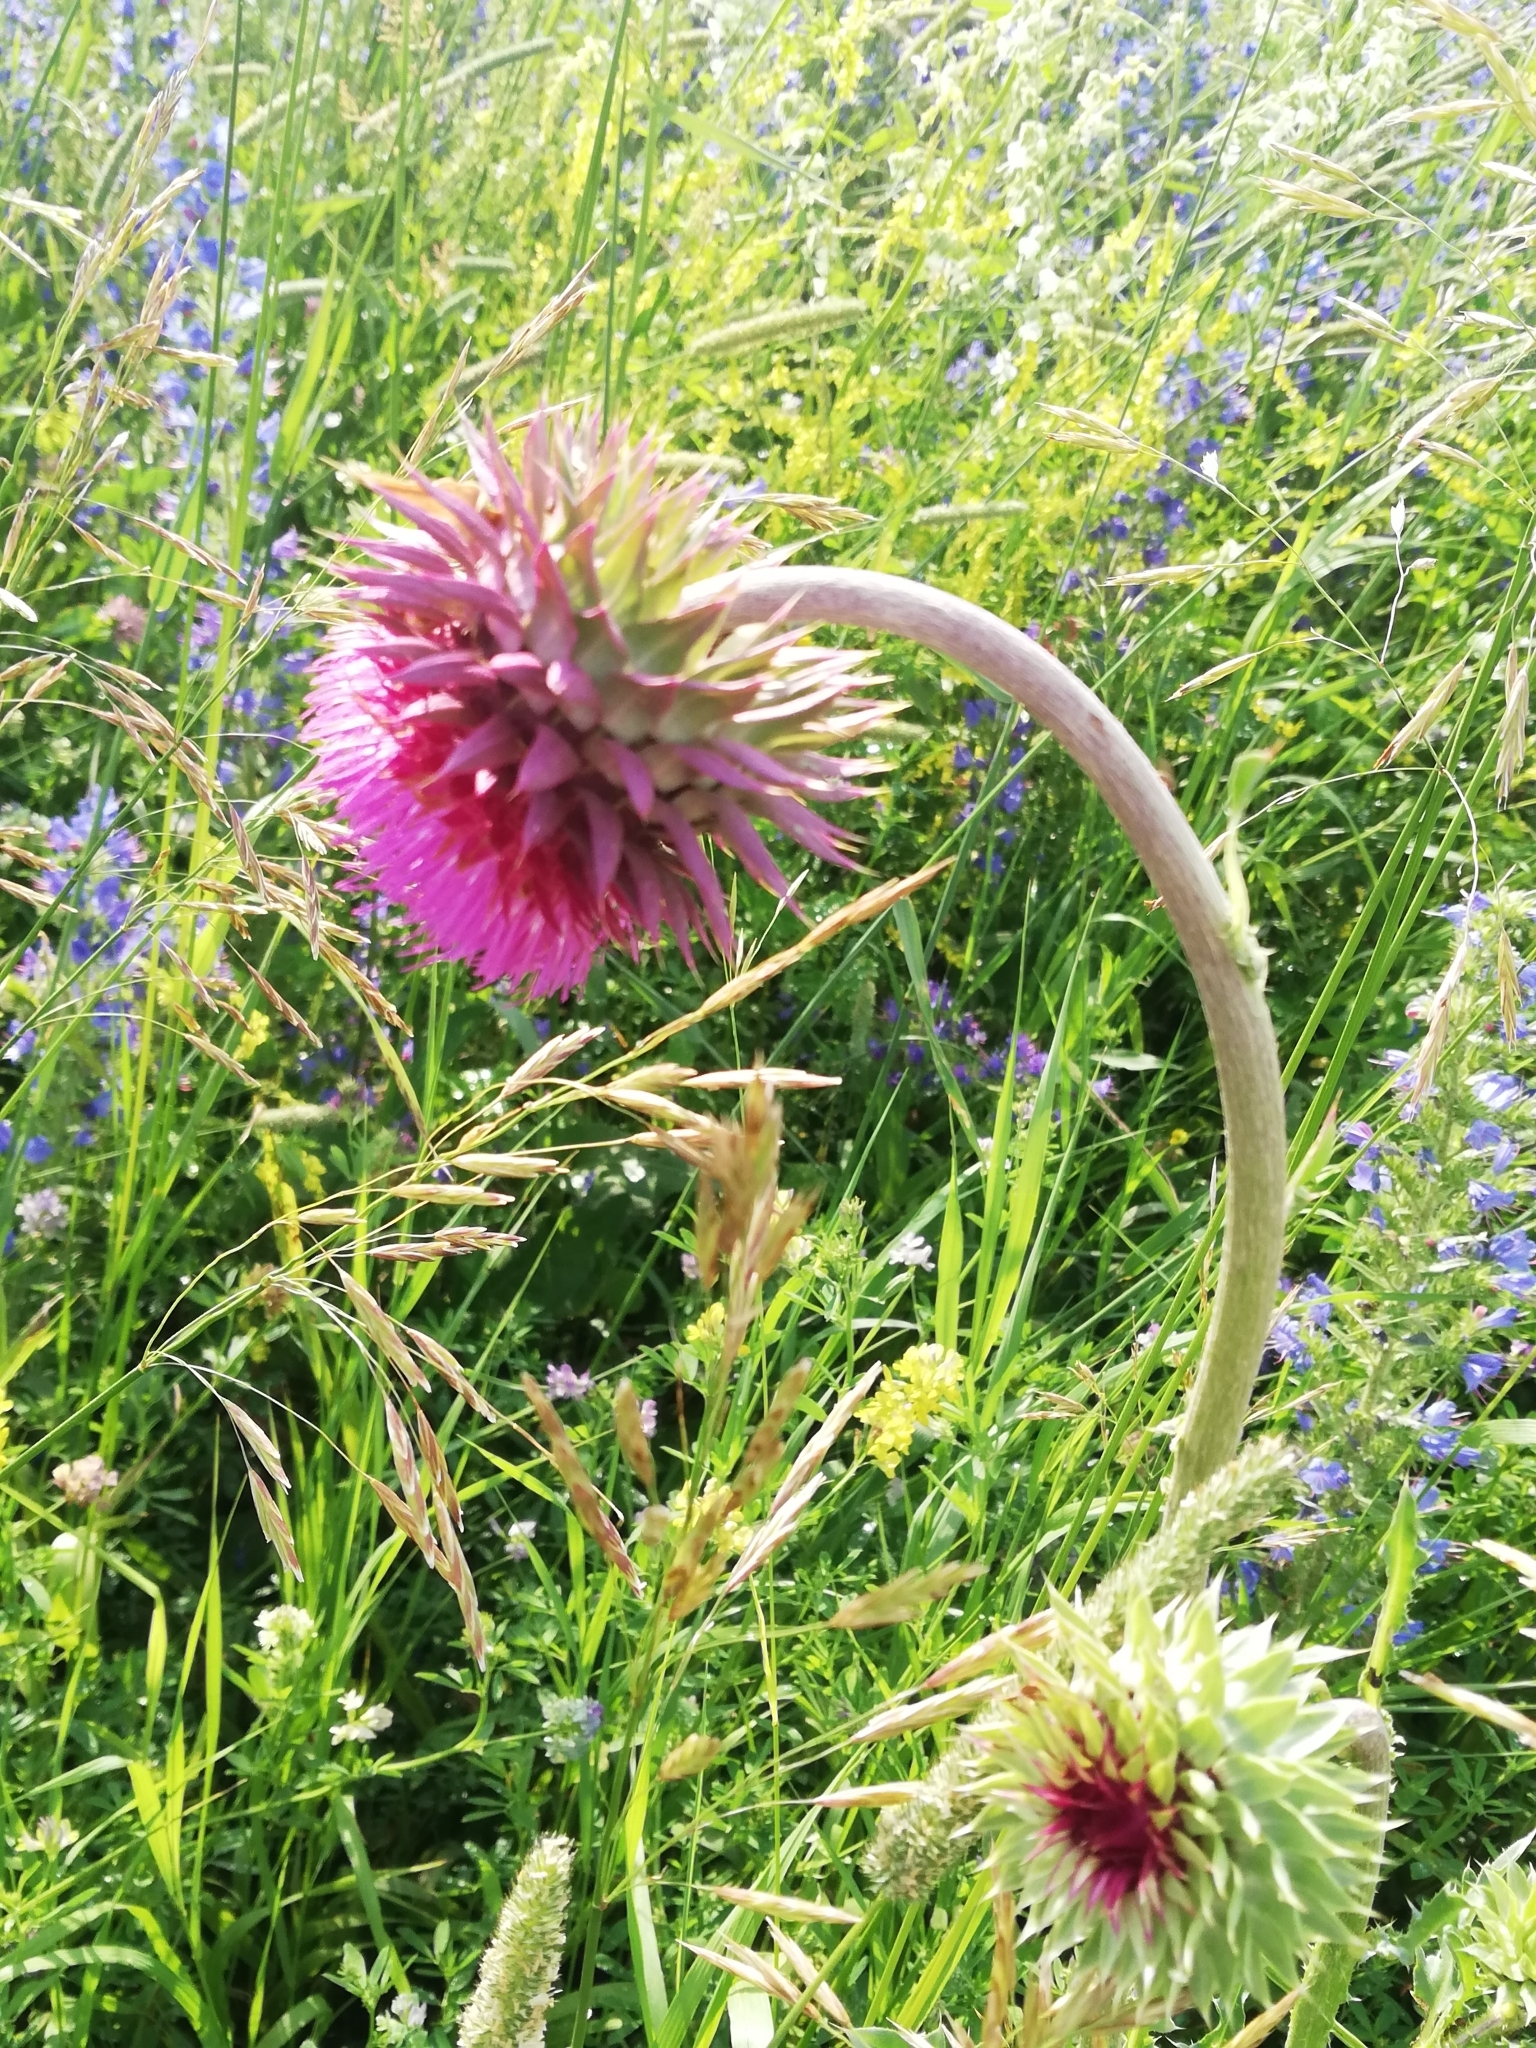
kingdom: Plantae
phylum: Tracheophyta
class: Magnoliopsida
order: Asterales
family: Asteraceae
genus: Carduus
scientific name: Carduus nutans
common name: Musk thistle
